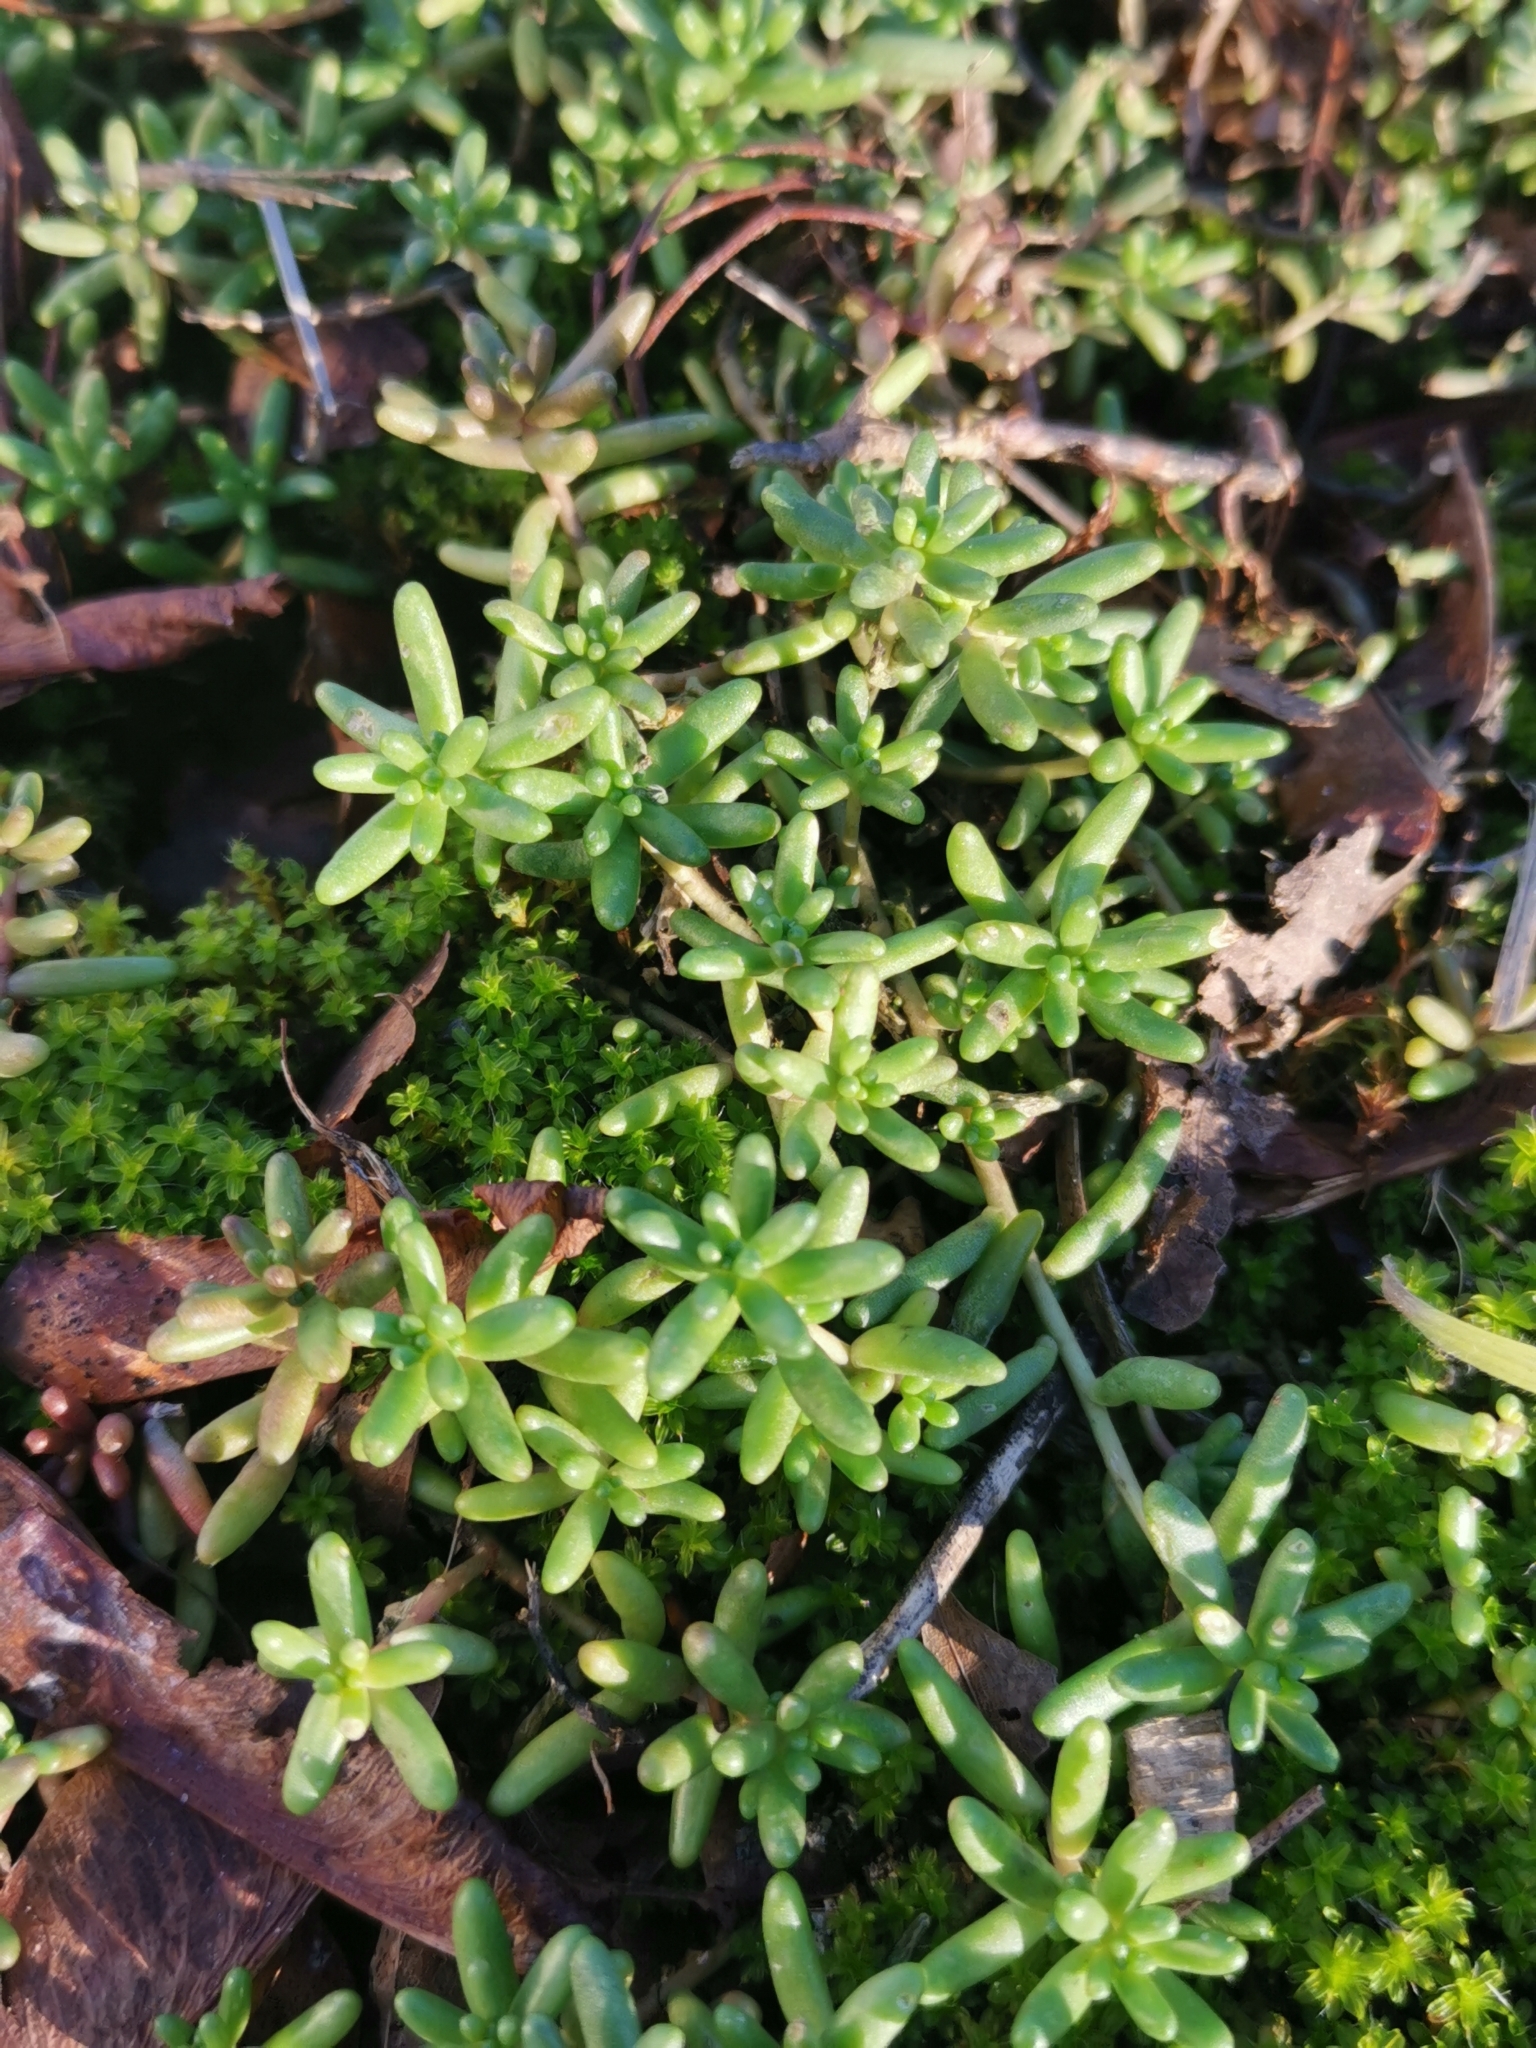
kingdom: Plantae
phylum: Tracheophyta
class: Magnoliopsida
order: Saxifragales
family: Crassulaceae
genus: Sedum
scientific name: Sedum album
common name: White stonecrop
